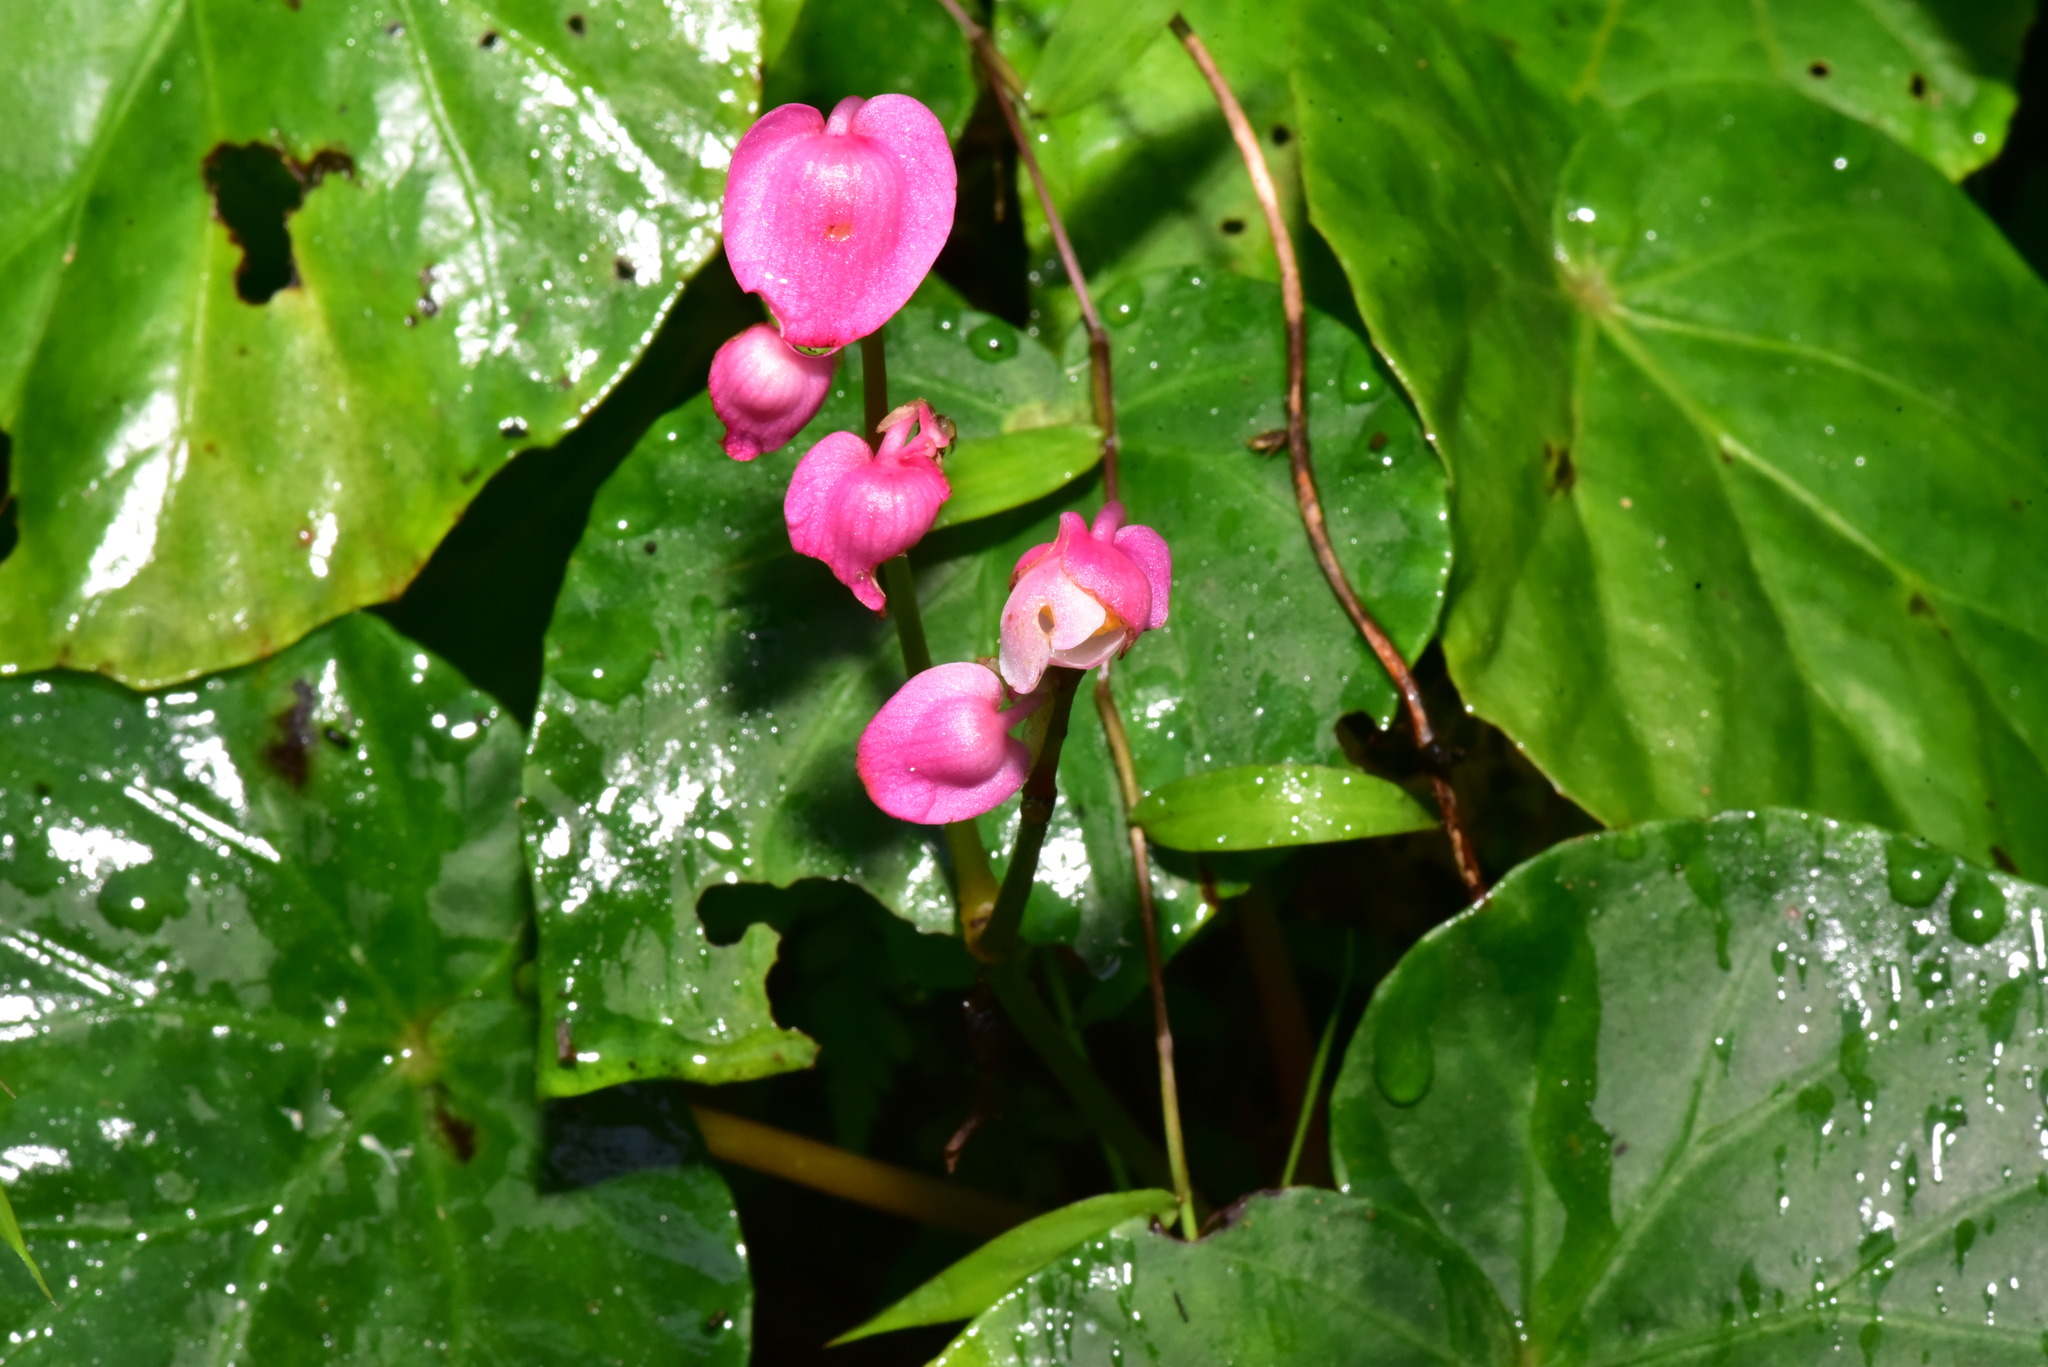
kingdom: Plantae
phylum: Tracheophyta
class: Magnoliopsida
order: Cucurbitales
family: Begoniaceae
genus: Begonia
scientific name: Begonia chitoensis
